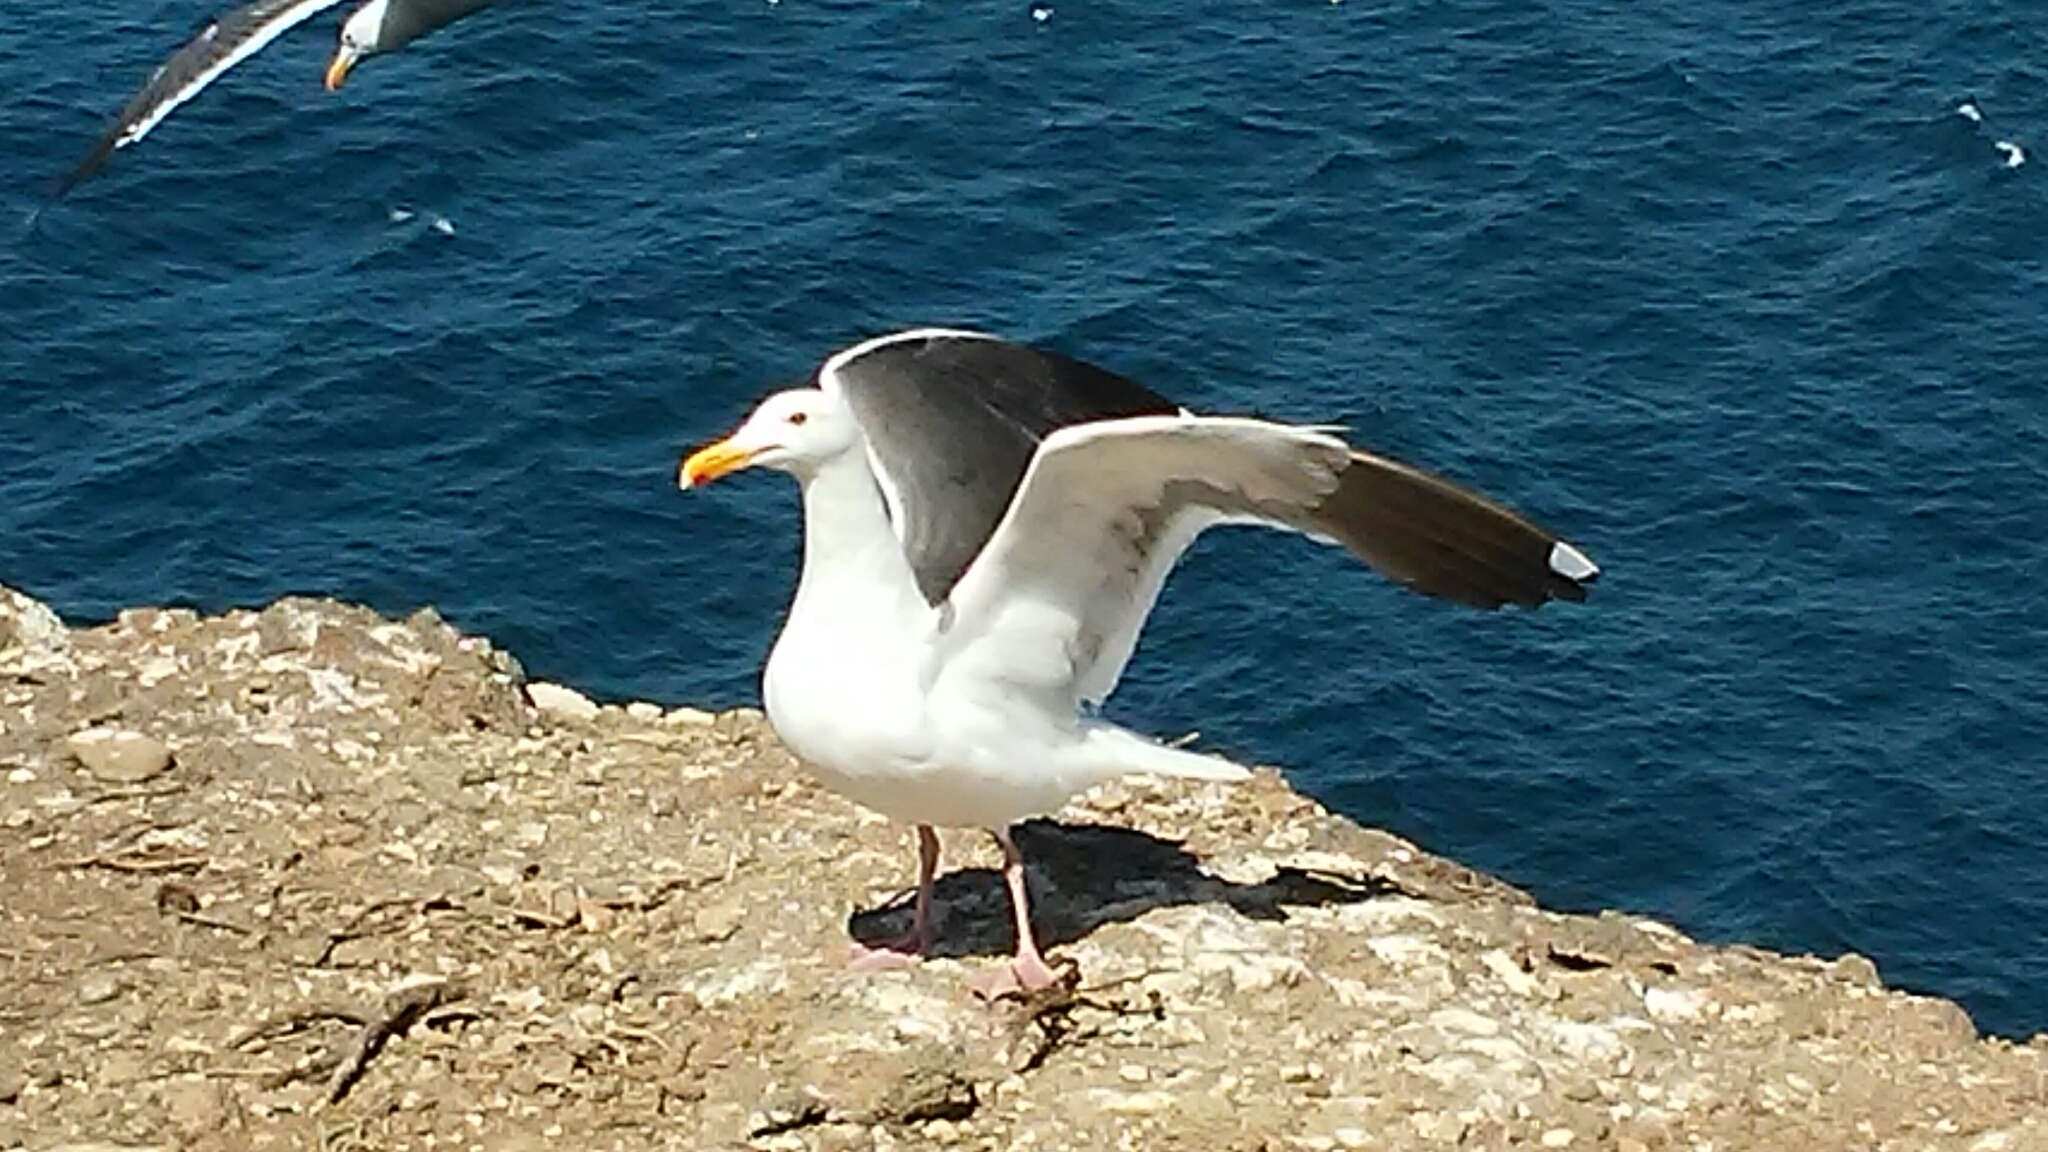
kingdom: Animalia
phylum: Chordata
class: Aves
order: Charadriiformes
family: Laridae
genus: Larus
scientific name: Larus occidentalis
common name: Western gull
